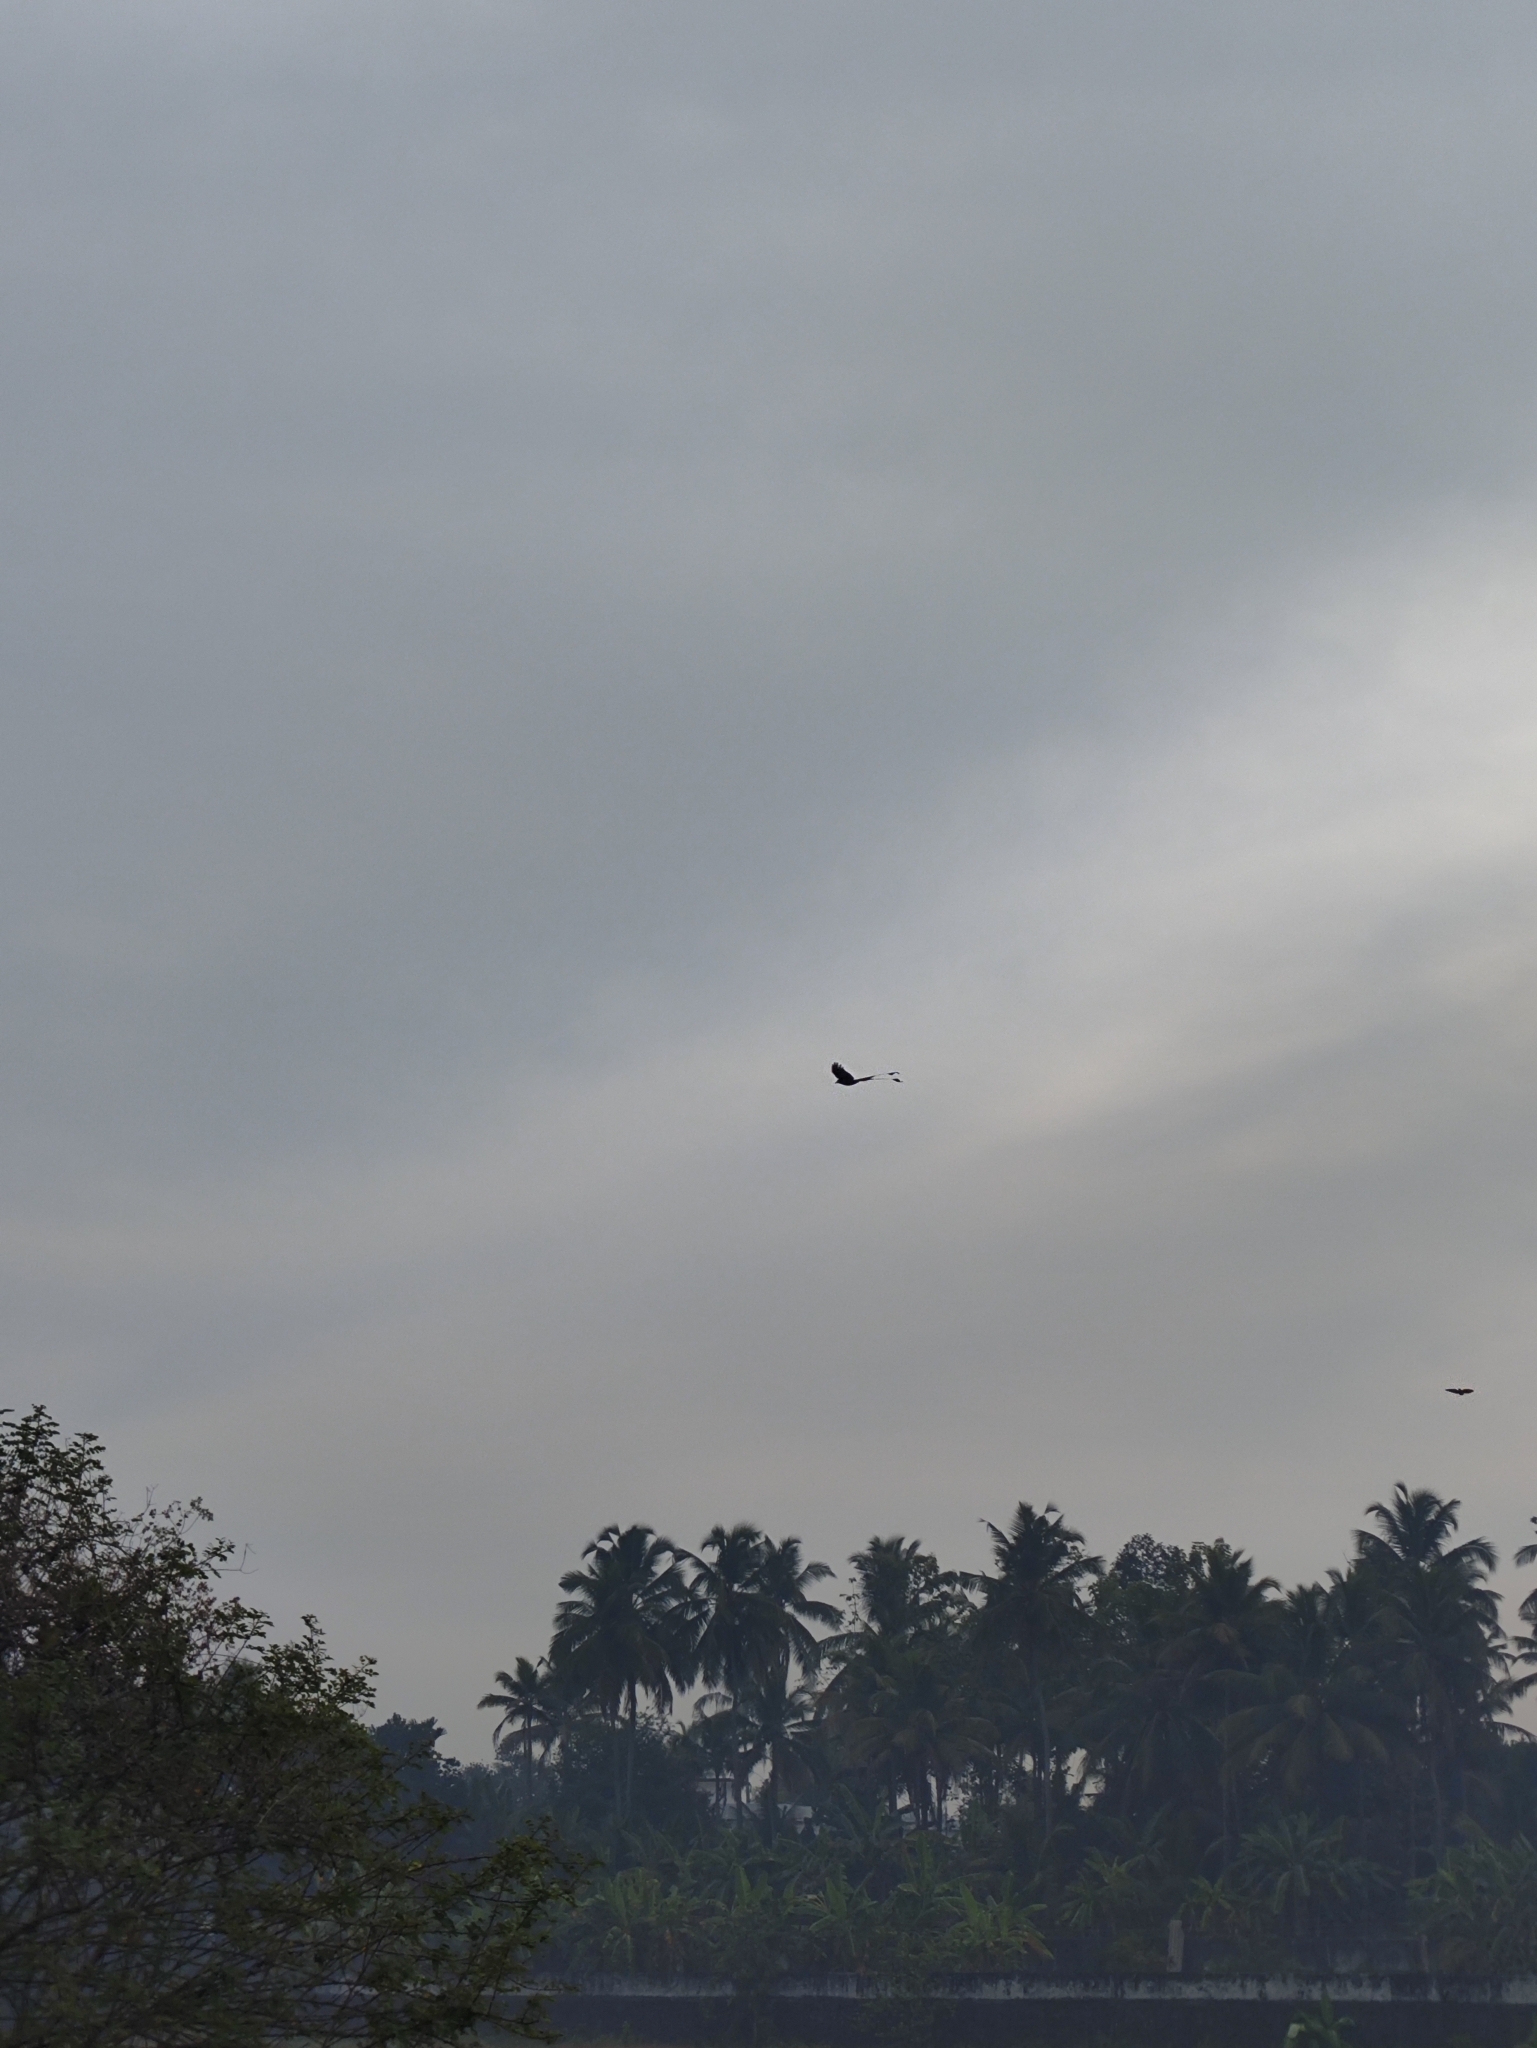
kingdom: Animalia
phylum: Chordata
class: Aves
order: Passeriformes
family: Dicruridae
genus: Dicrurus
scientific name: Dicrurus paradiseus
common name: Greater racket-tailed drongo
